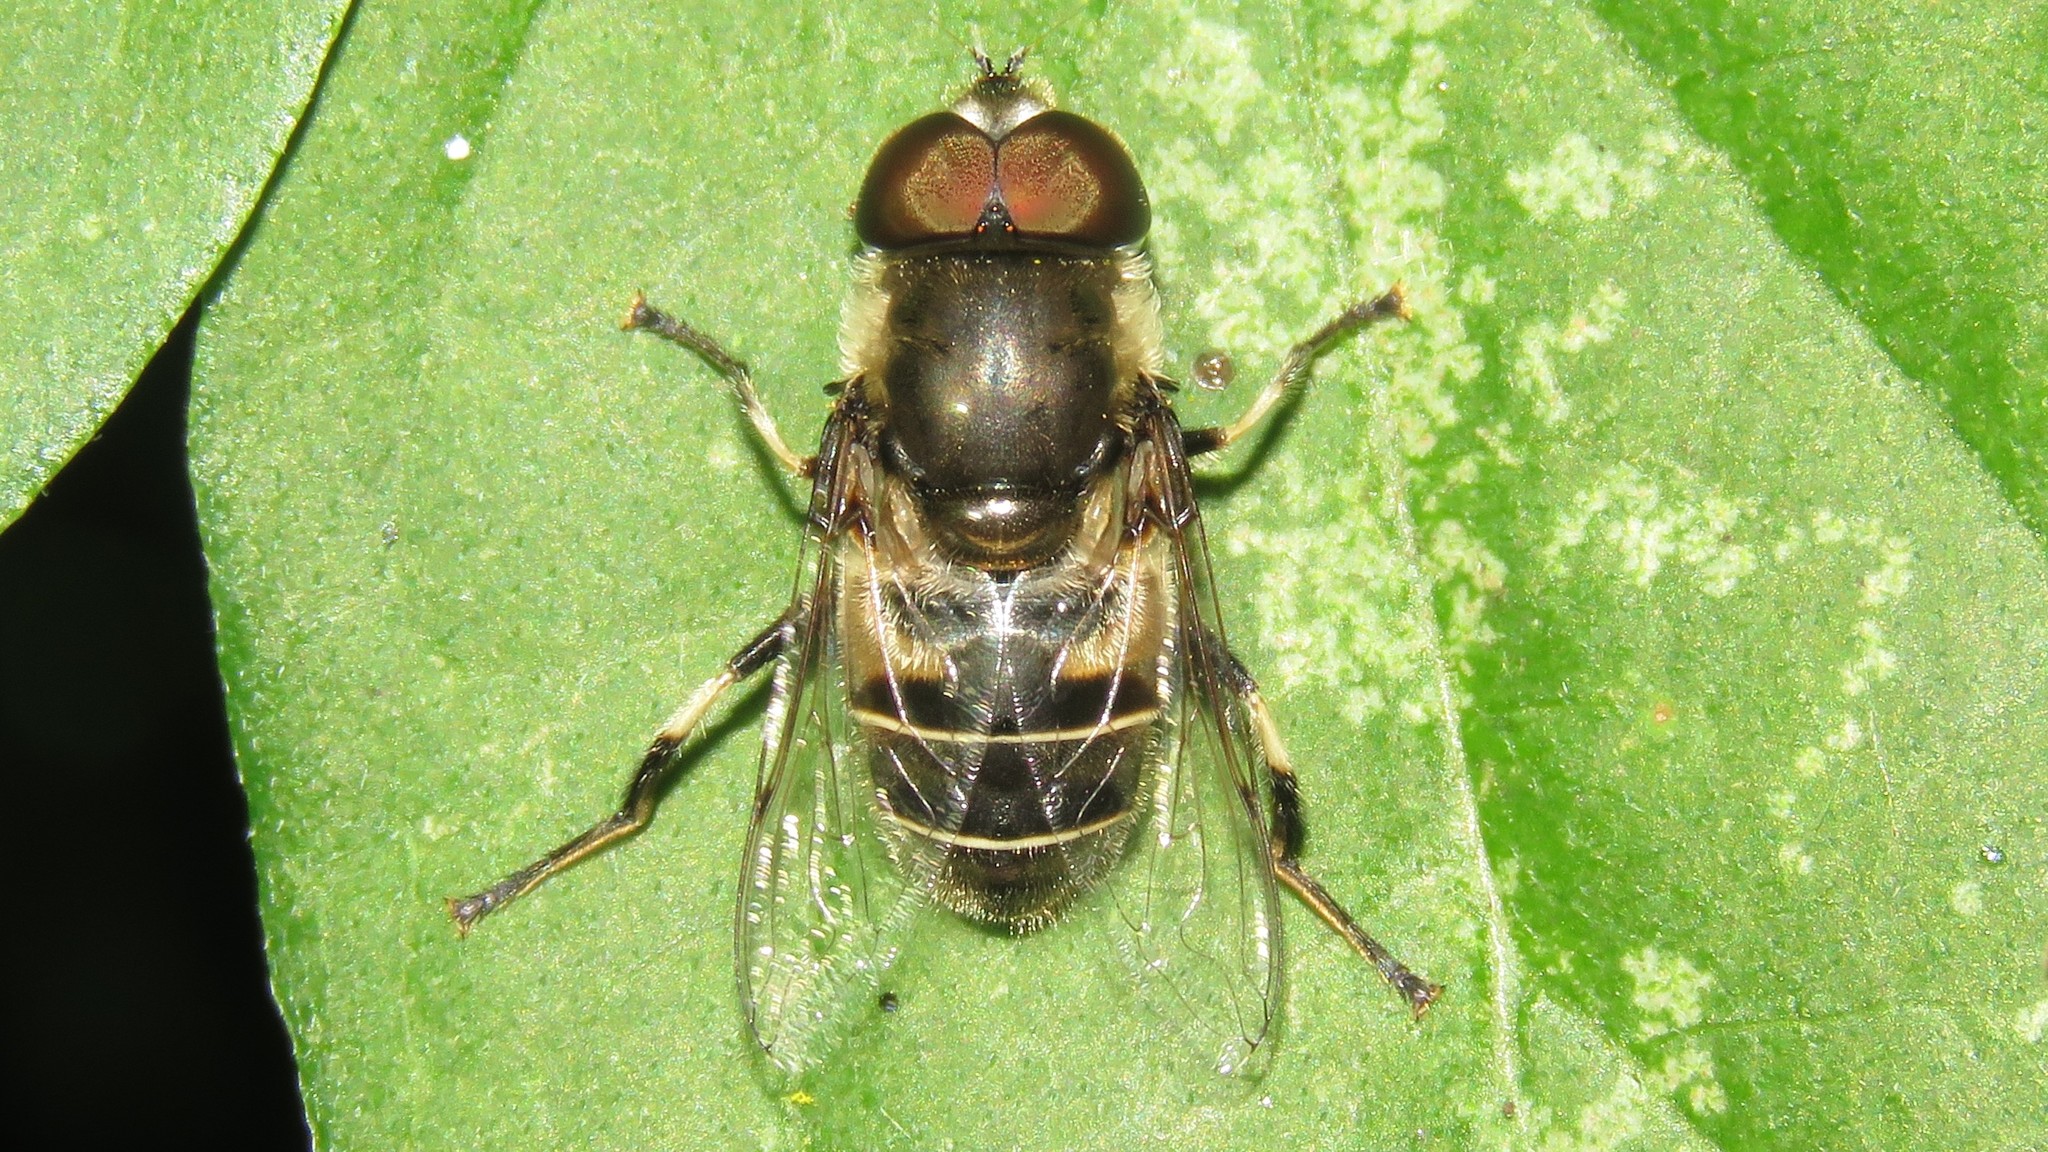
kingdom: Animalia
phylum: Arthropoda
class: Insecta
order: Diptera
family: Syrphidae
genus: Eristalis
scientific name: Eristalis dimidiata
